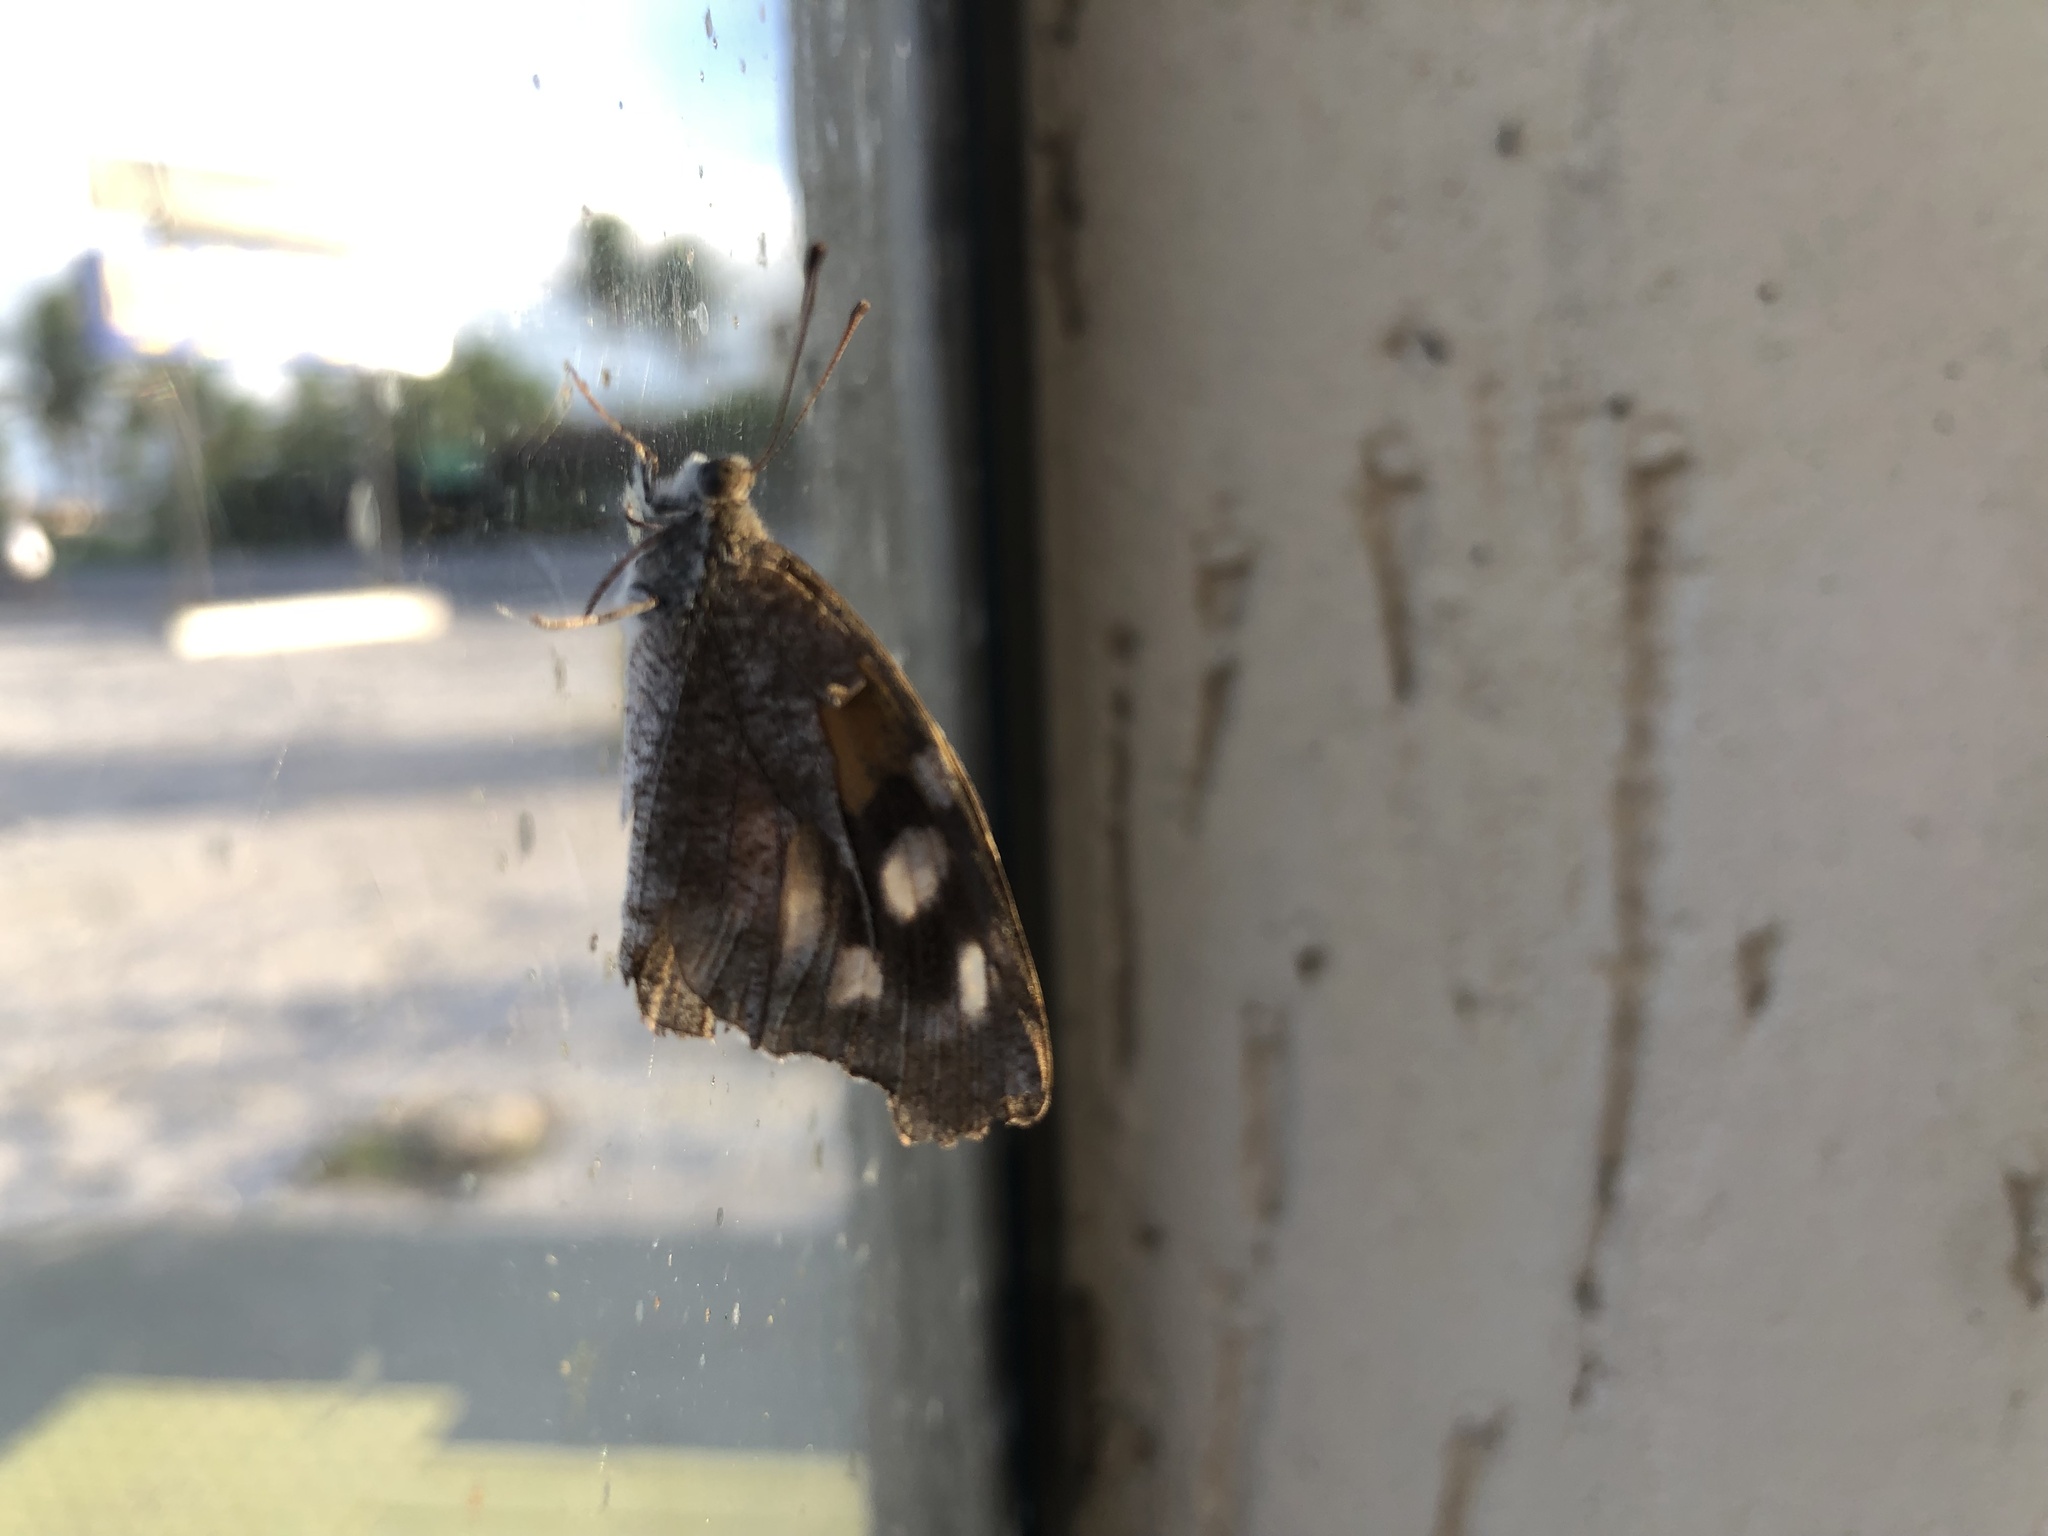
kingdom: Animalia
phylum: Arthropoda
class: Insecta
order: Lepidoptera
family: Nymphalidae
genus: Libytheana
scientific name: Libytheana carinenta
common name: American snout
